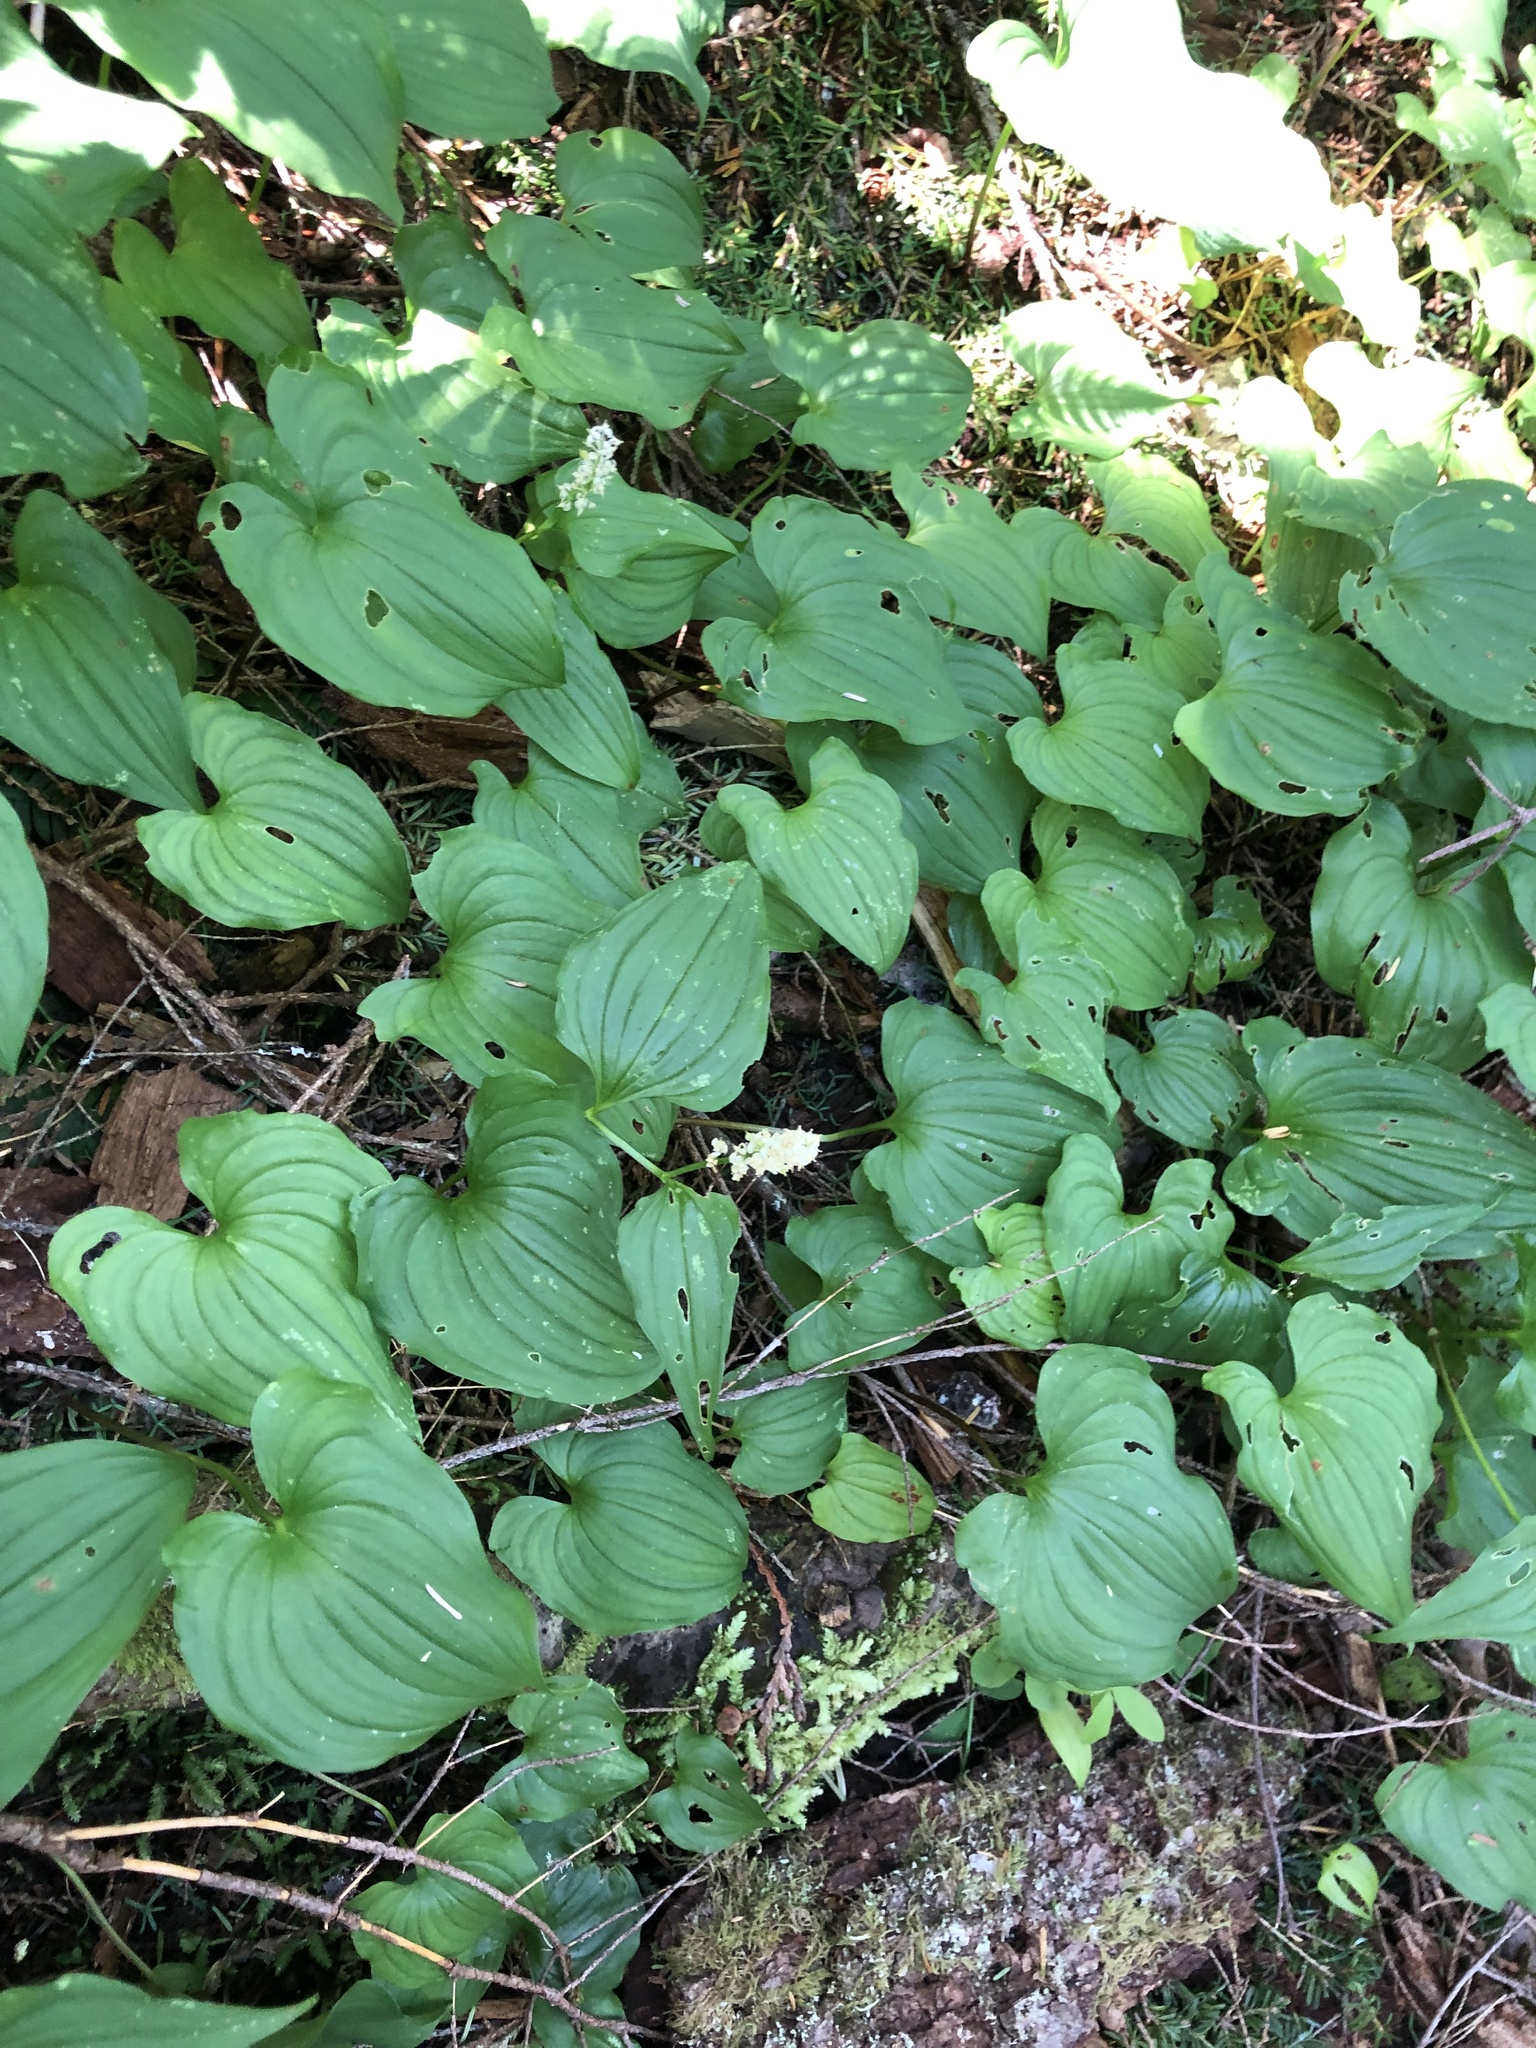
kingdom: Plantae
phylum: Tracheophyta
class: Liliopsida
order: Asparagales
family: Asparagaceae
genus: Maianthemum
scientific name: Maianthemum dilatatum
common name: False lily-of-the-valley
